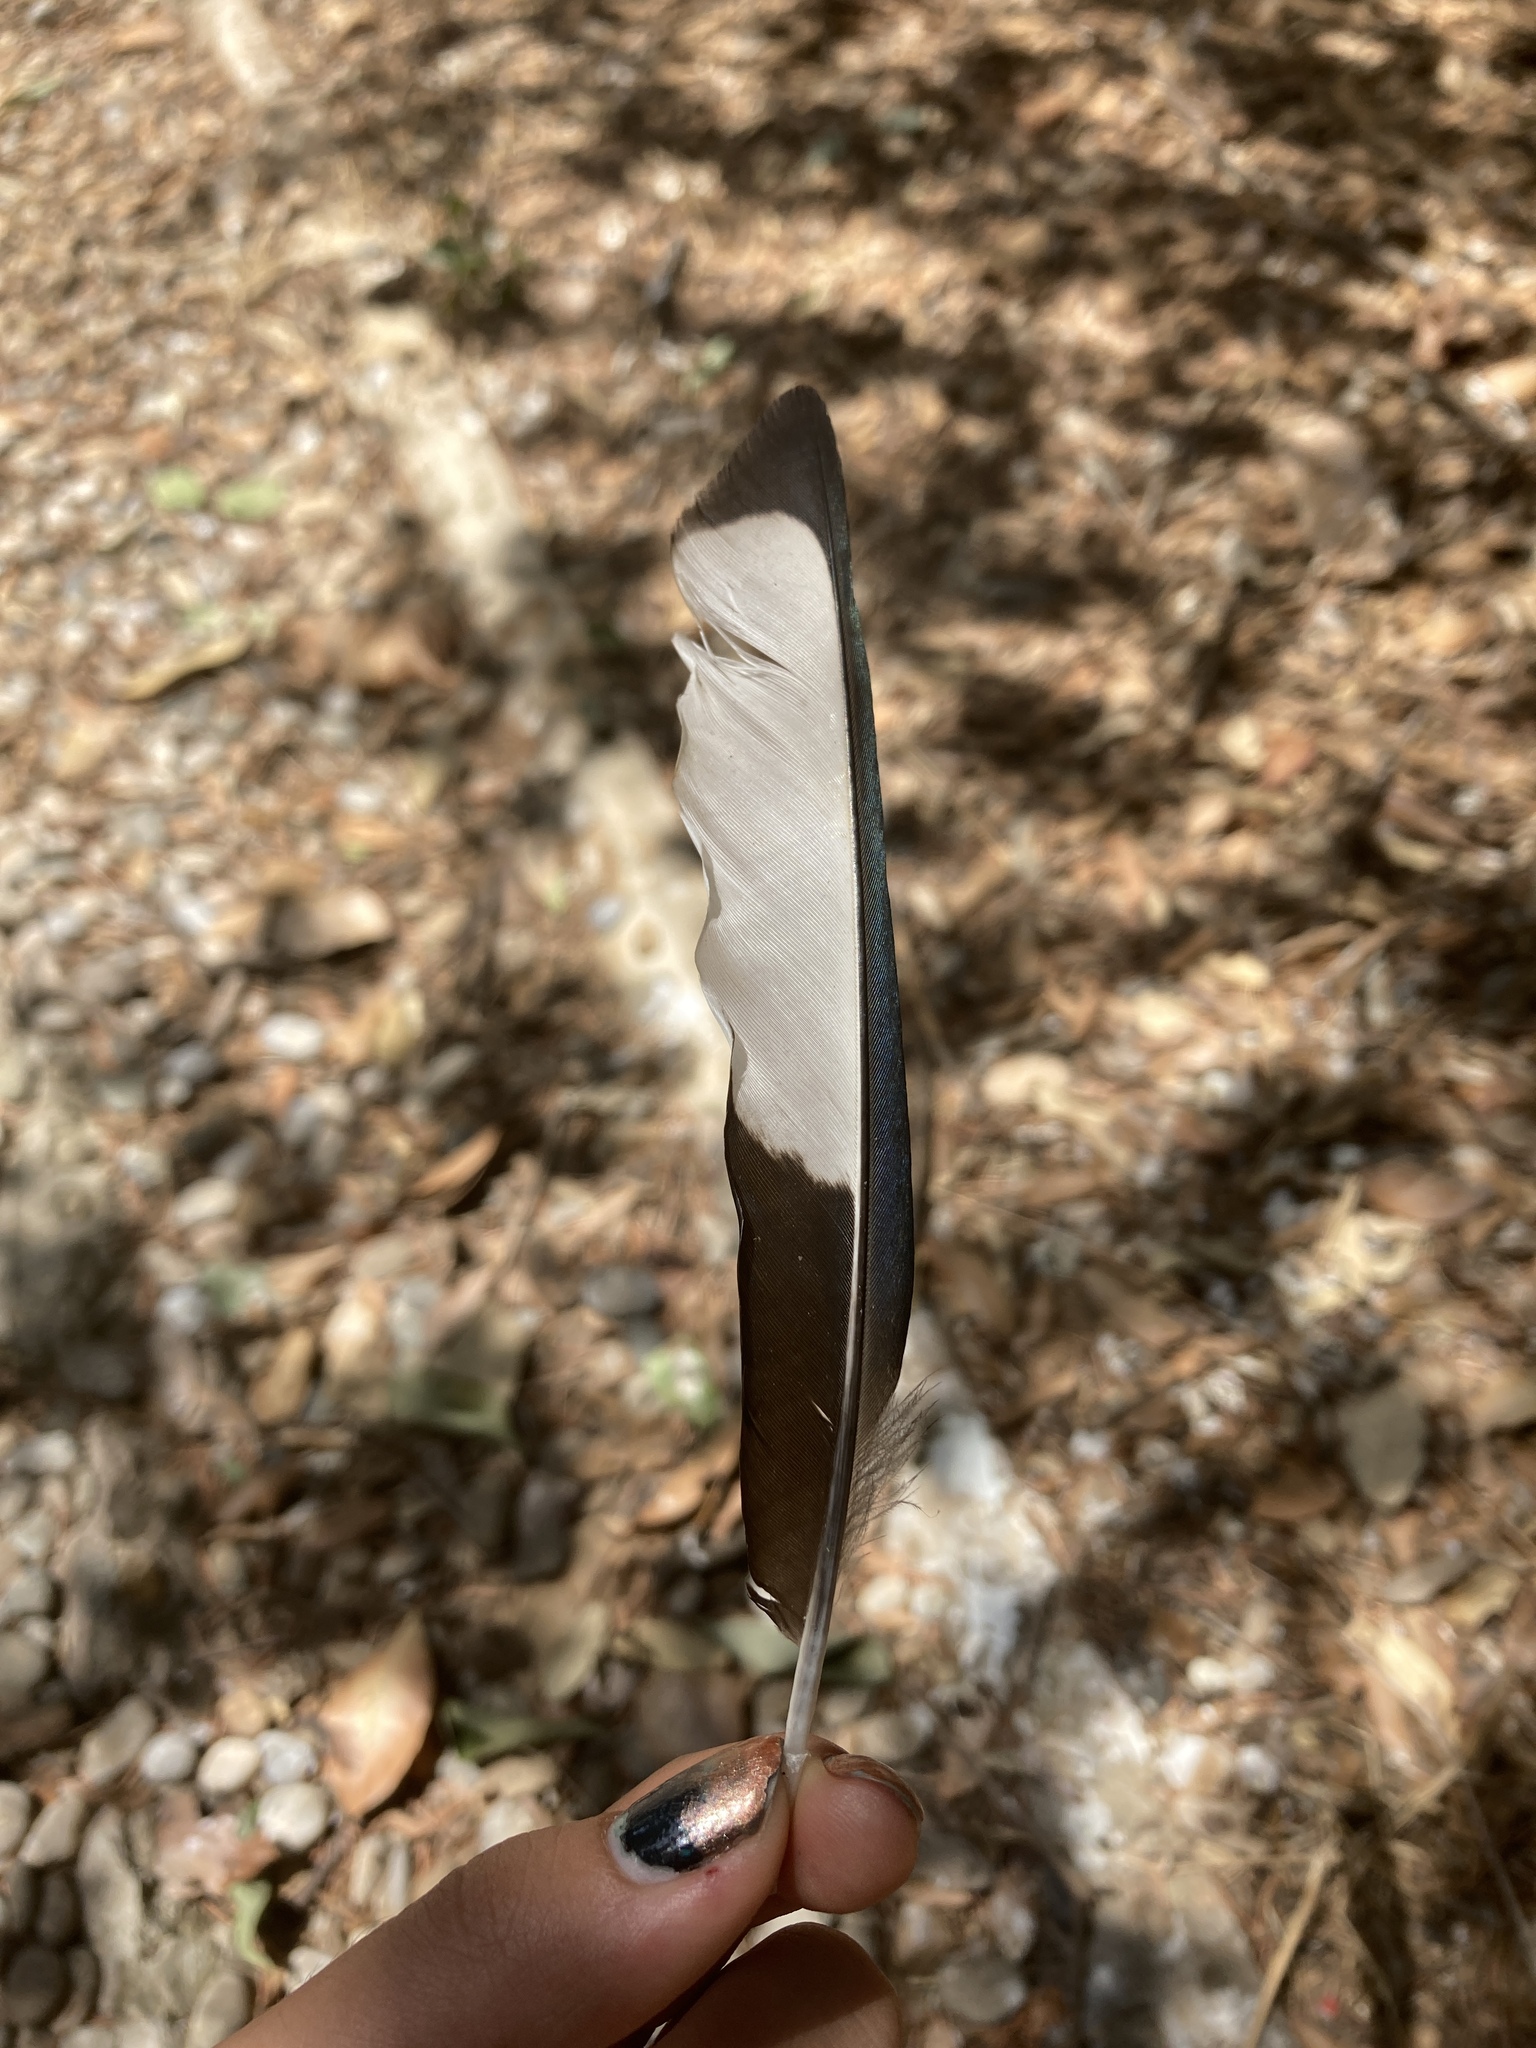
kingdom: Animalia
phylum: Chordata
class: Aves
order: Passeriformes
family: Corvidae
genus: Pica
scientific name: Pica pica
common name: Eurasian magpie
